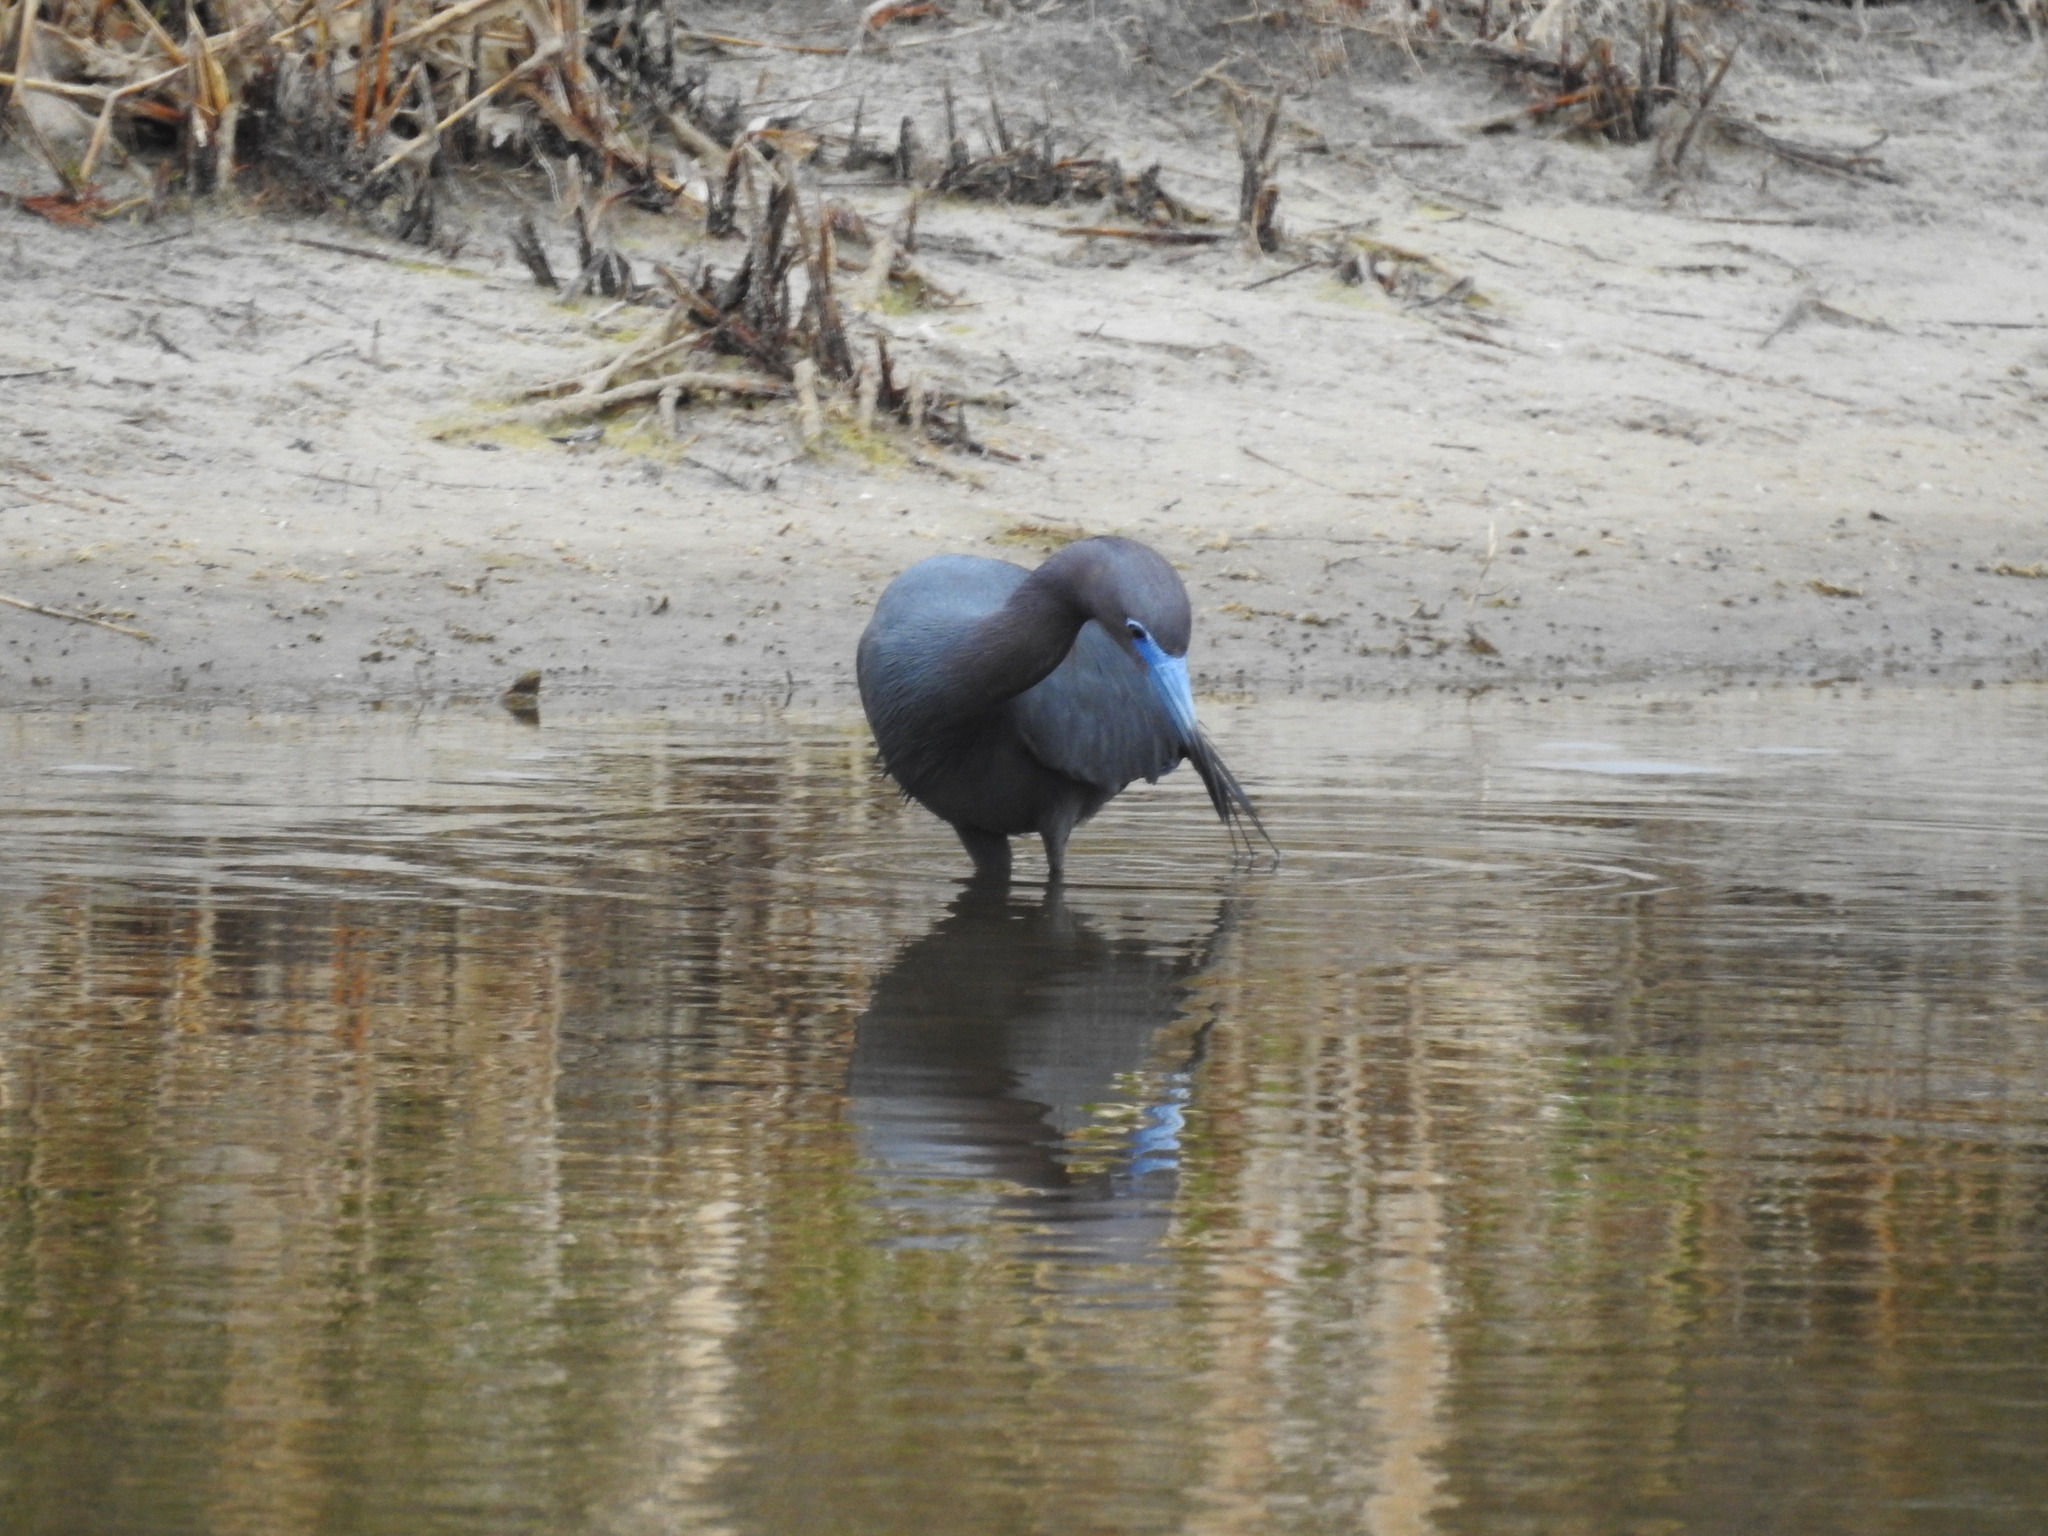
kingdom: Animalia
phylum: Chordata
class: Aves
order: Pelecaniformes
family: Ardeidae
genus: Egretta
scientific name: Egretta caerulea
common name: Little blue heron
